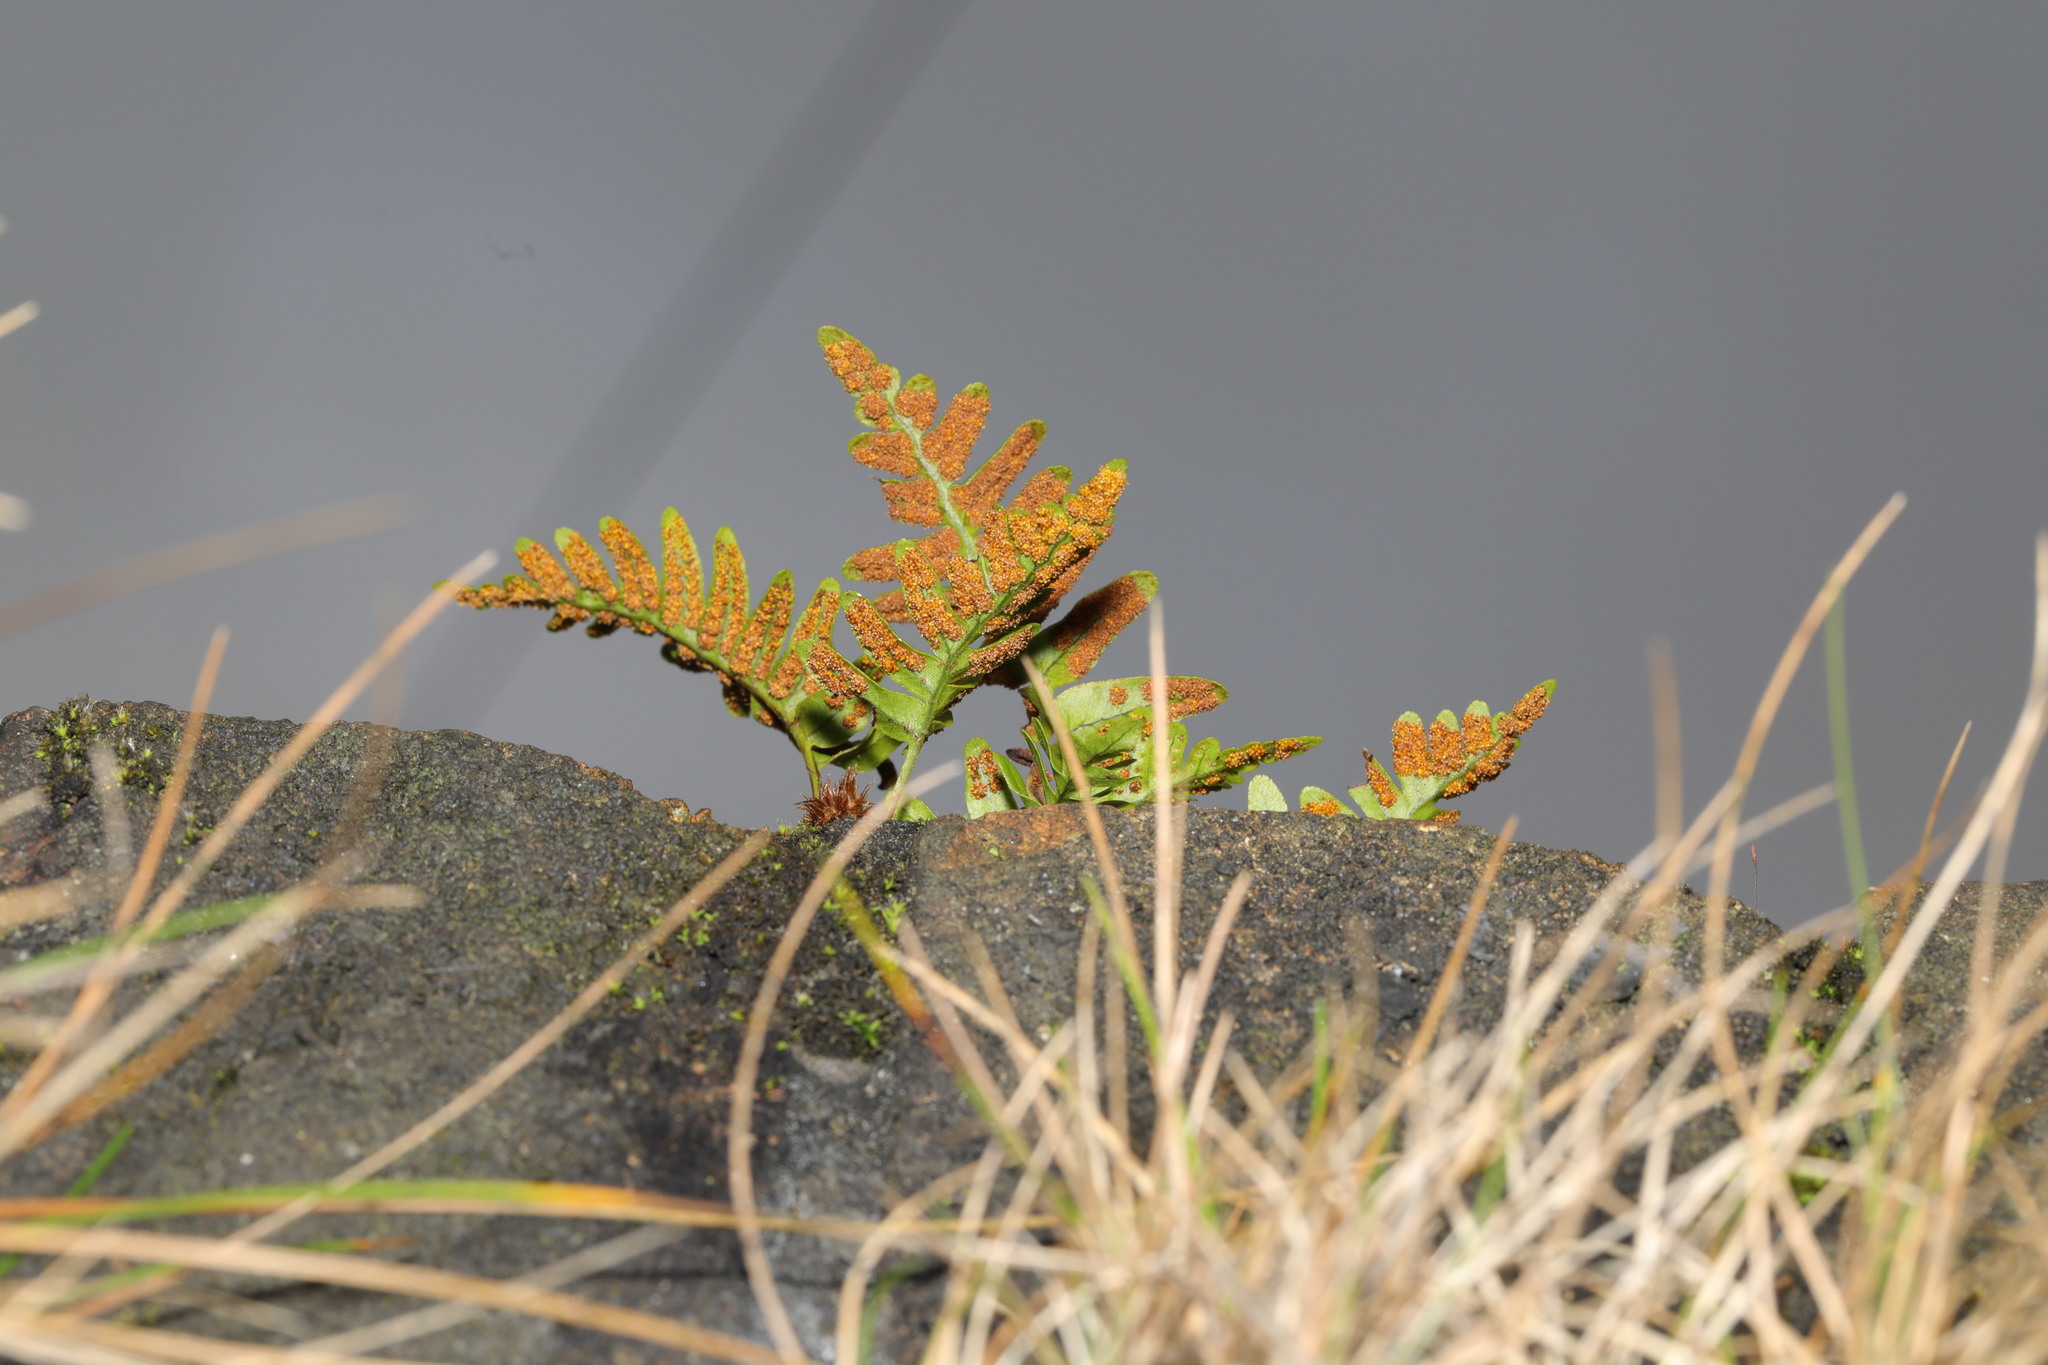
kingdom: Plantae
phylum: Tracheophyta
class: Polypodiopsida
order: Polypodiales
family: Polypodiaceae
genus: Polypodium
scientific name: Polypodium vulgare
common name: Common polypody
